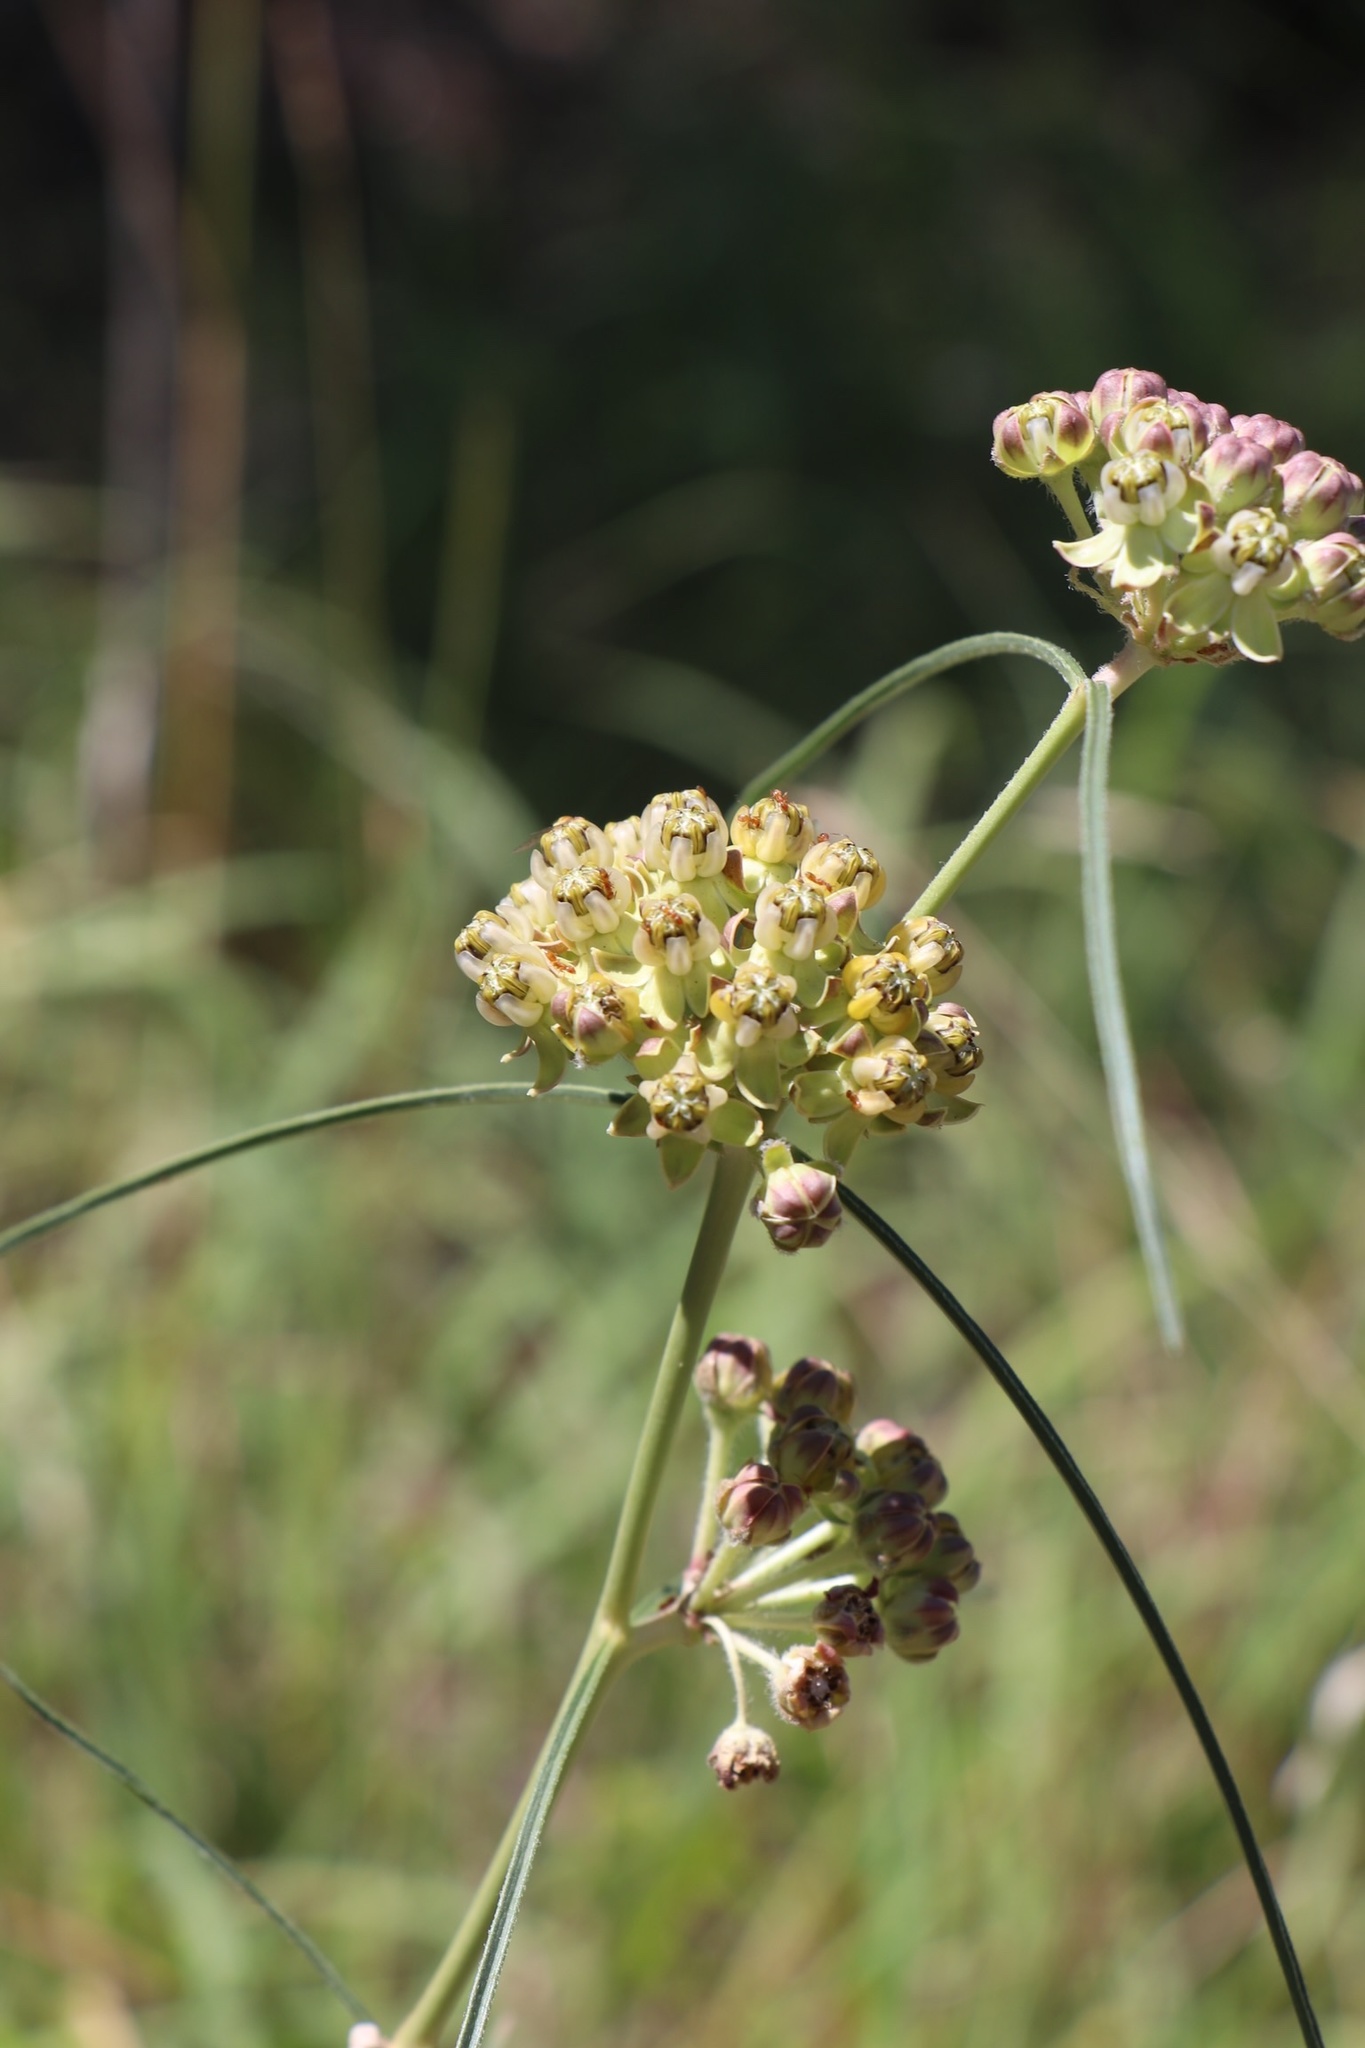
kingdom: Plantae
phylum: Tracheophyta
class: Magnoliopsida
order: Gentianales
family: Apocynaceae
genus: Asclepias
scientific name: Asclepias engelmanniana
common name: Engelmann's milkweed
